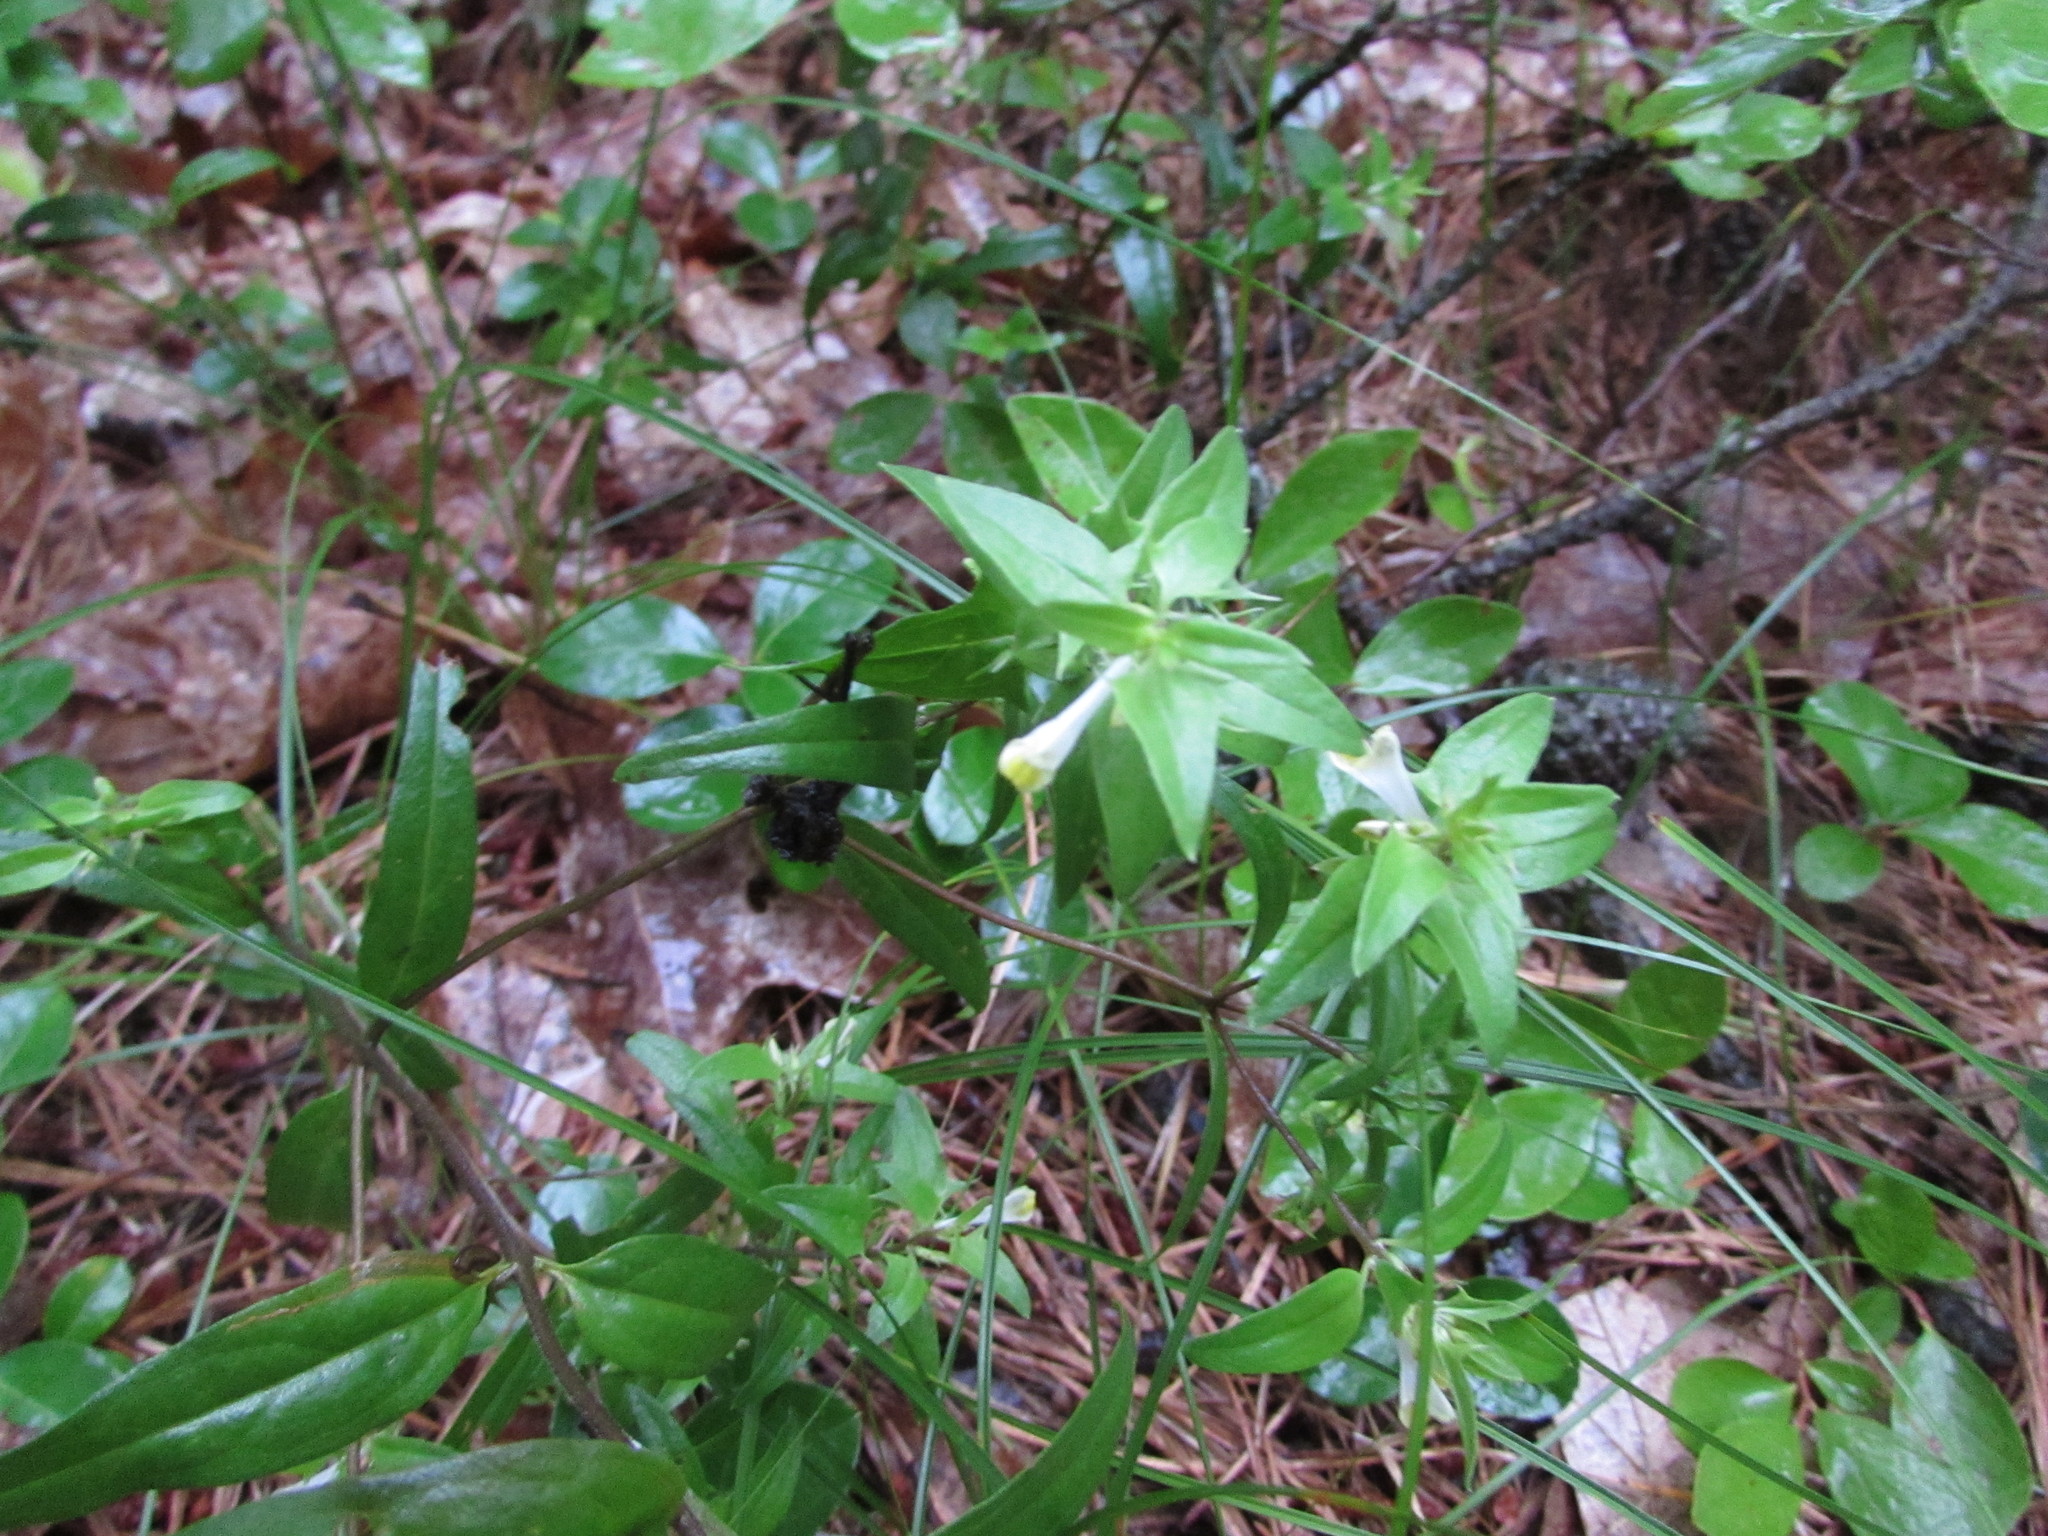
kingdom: Plantae
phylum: Tracheophyta
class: Magnoliopsida
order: Lamiales
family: Orobanchaceae
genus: Melampyrum
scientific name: Melampyrum lineare
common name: American cow-wheat
